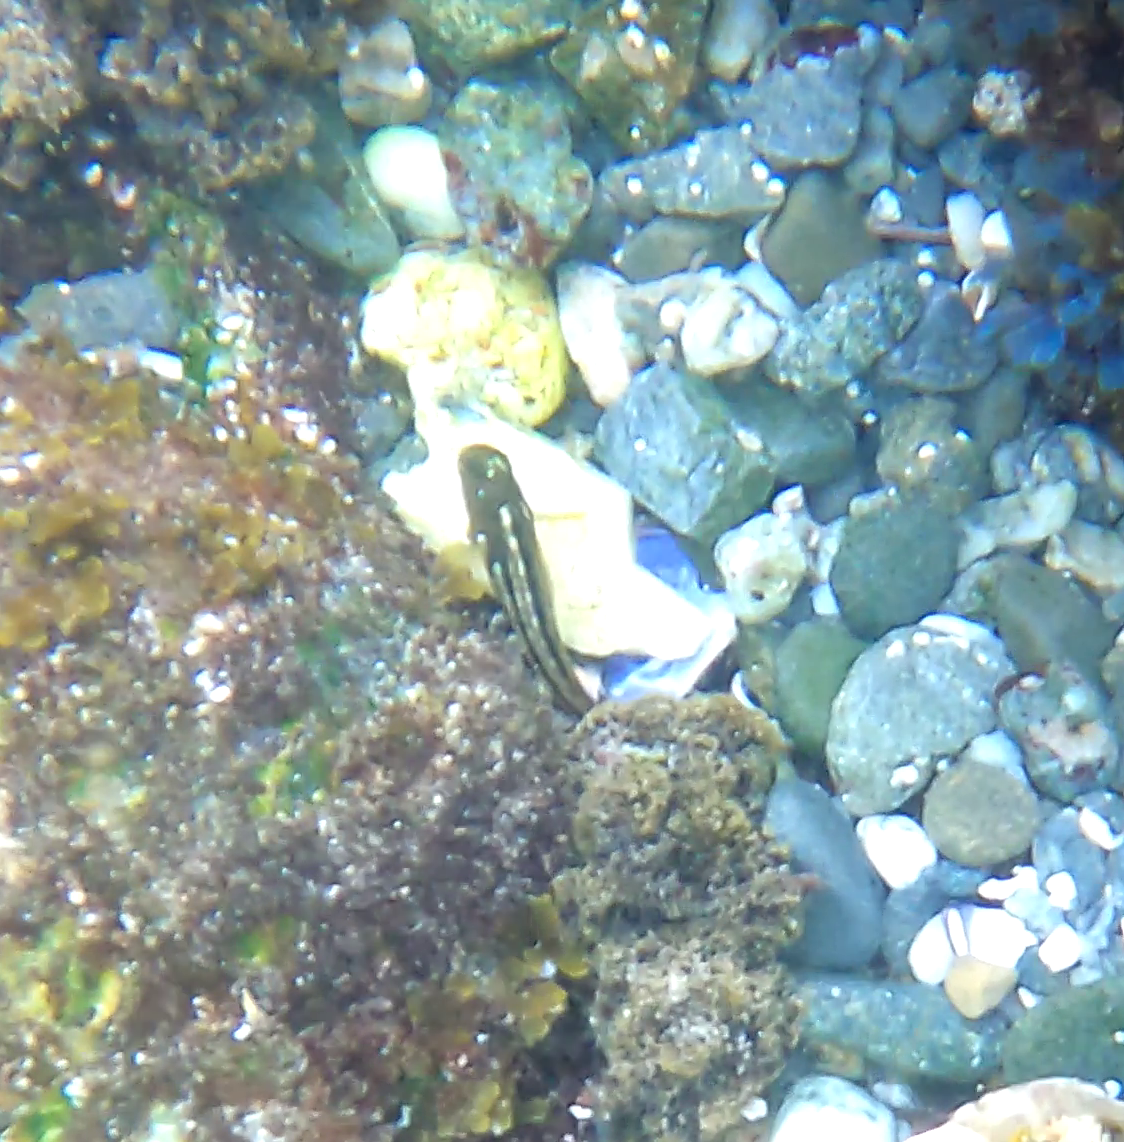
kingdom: Animalia
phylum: Chordata
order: Perciformes
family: Blenniidae
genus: Scartichthys
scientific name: Scartichthys viridis
